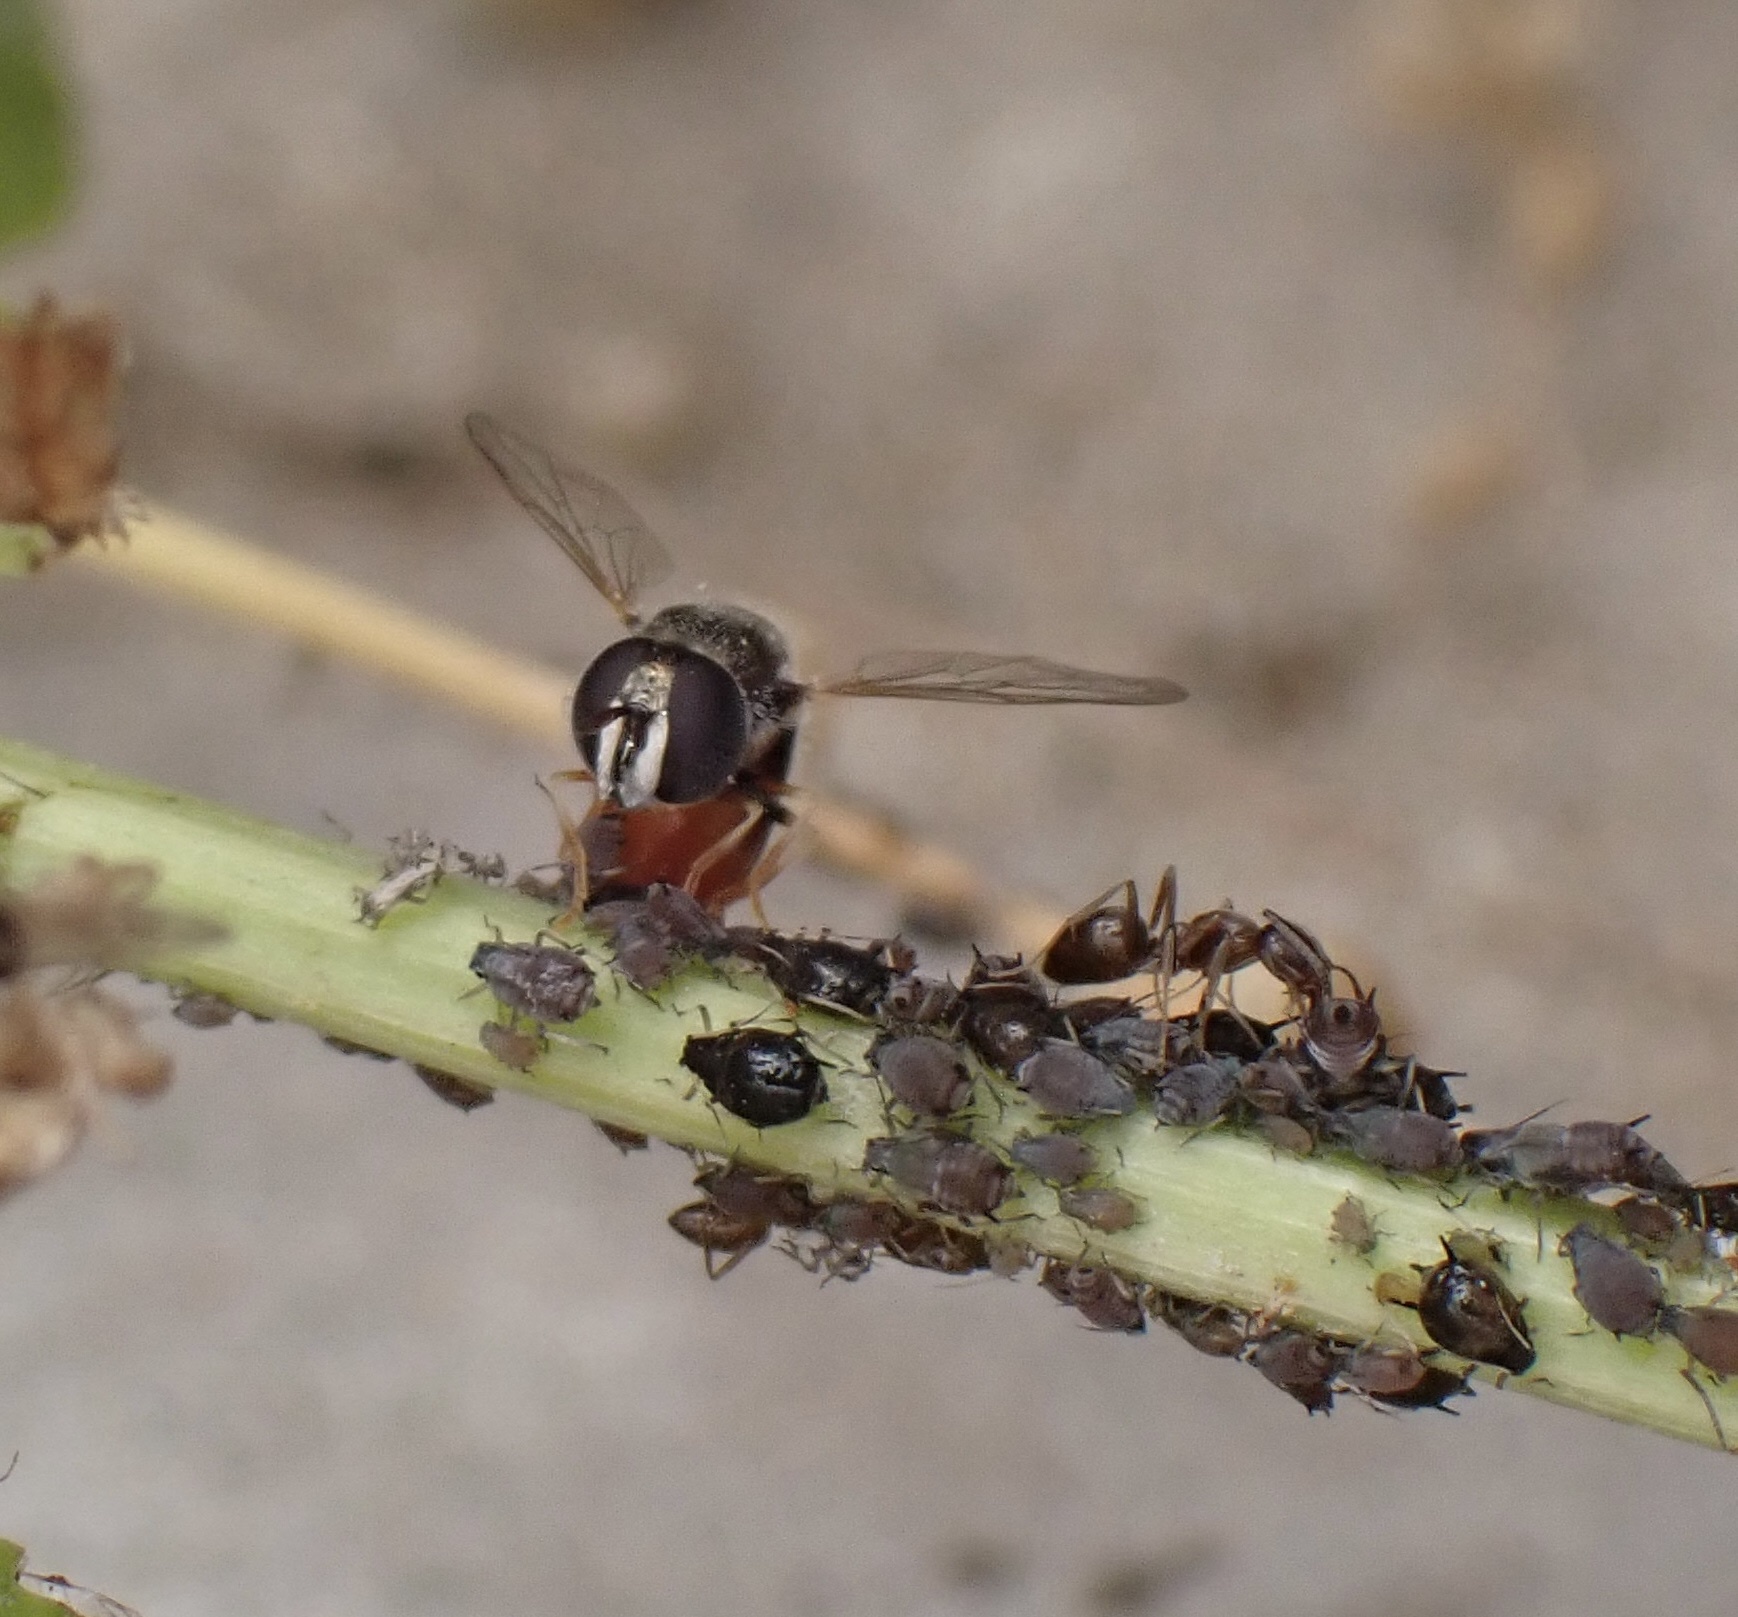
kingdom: Animalia
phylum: Arthropoda
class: Insecta
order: Diptera
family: Syrphidae
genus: Paragus
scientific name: Paragus haemorrhous
